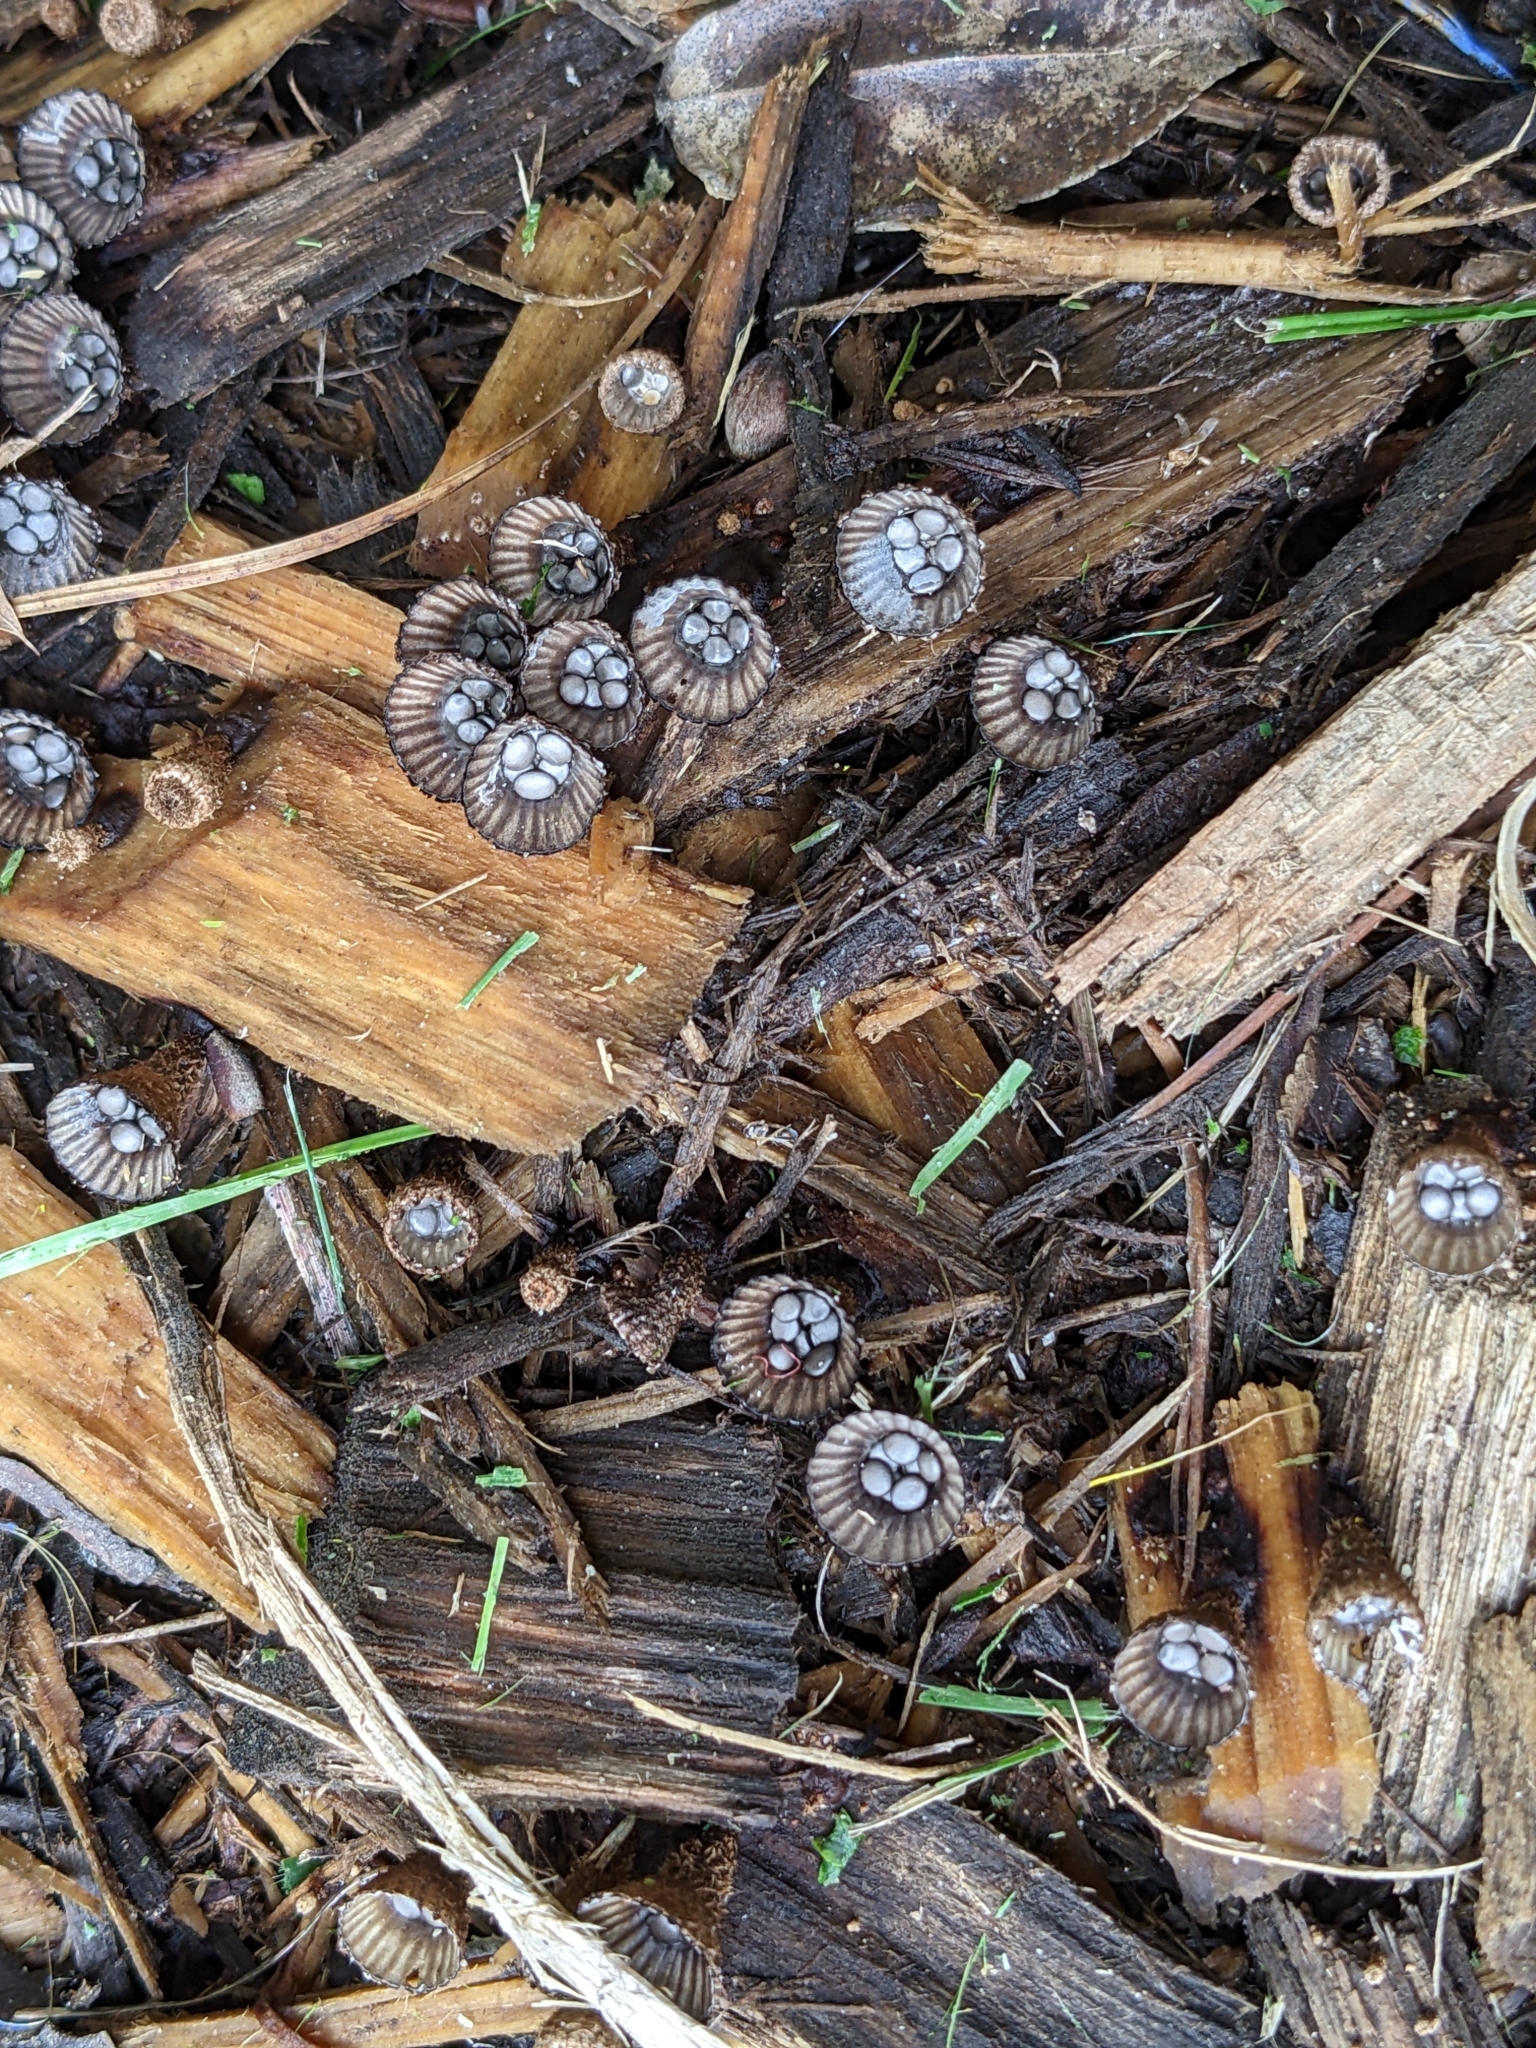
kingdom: Fungi
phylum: Basidiomycota
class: Agaricomycetes
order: Agaricales
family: Agaricaceae
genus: Cyathus
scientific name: Cyathus striatus
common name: Fluted bird's nest
